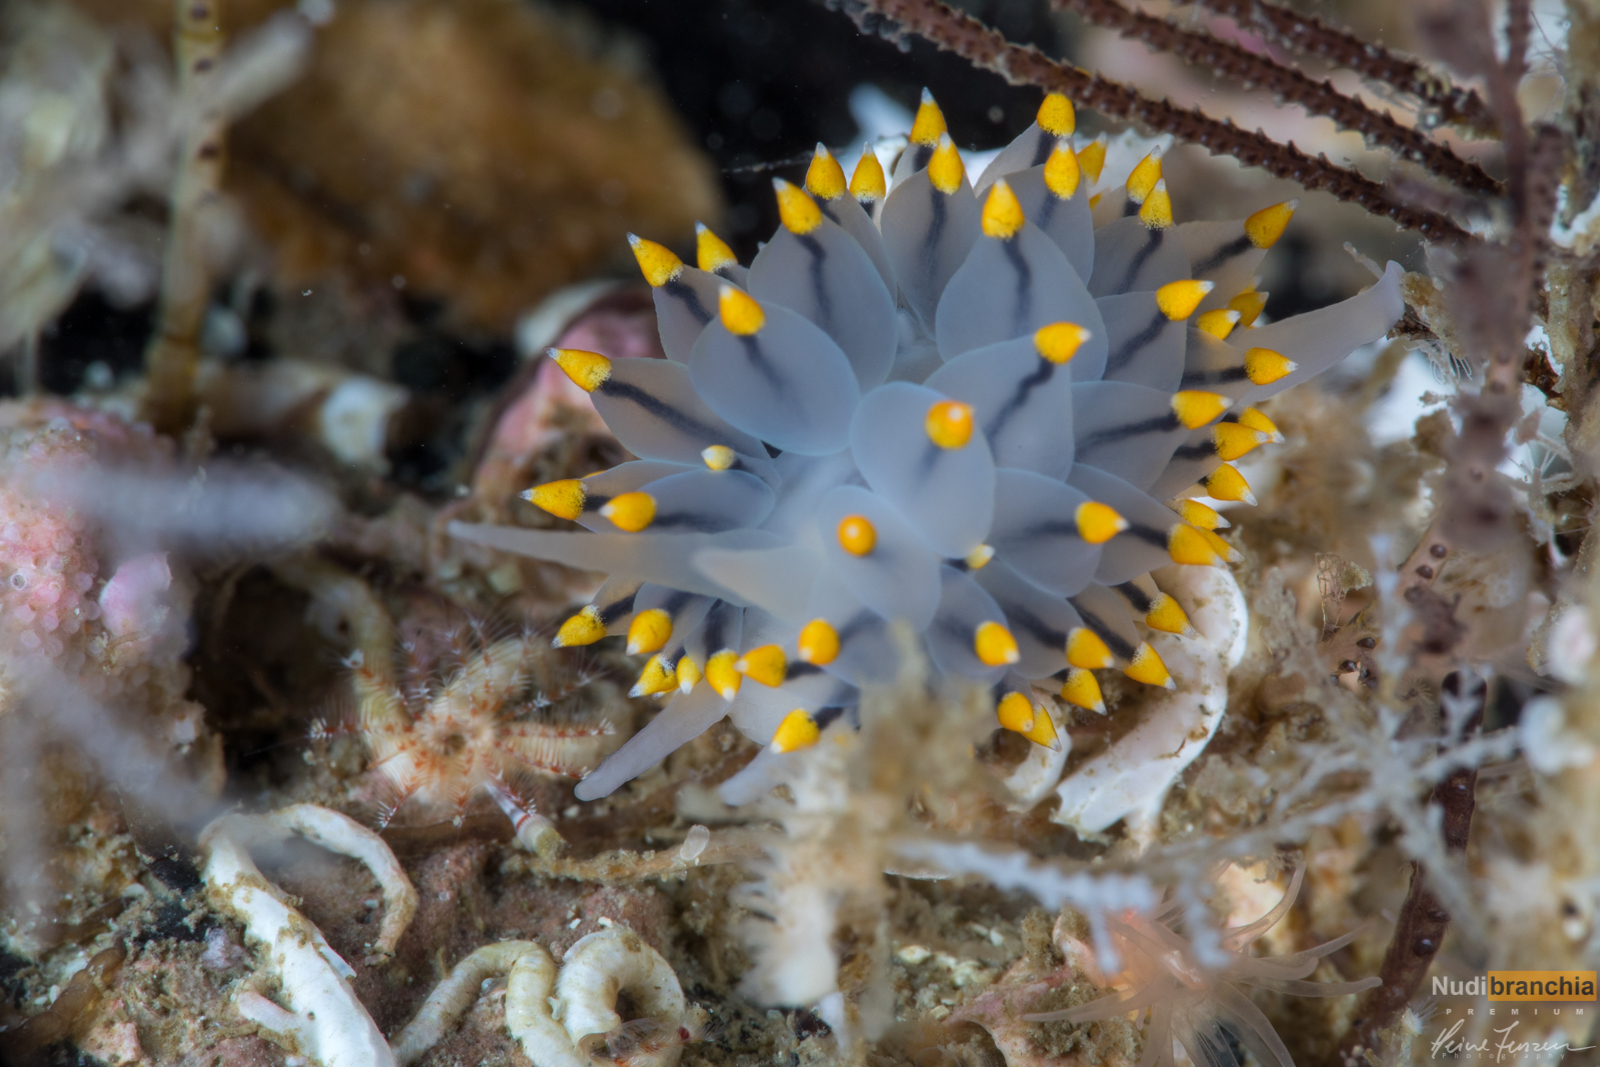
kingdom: Animalia
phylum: Mollusca
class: Gastropoda
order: Nudibranchia
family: Eubranchidae
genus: Eubranchus
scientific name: Eubranchus tricolor
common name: Painted balloon aeolis
